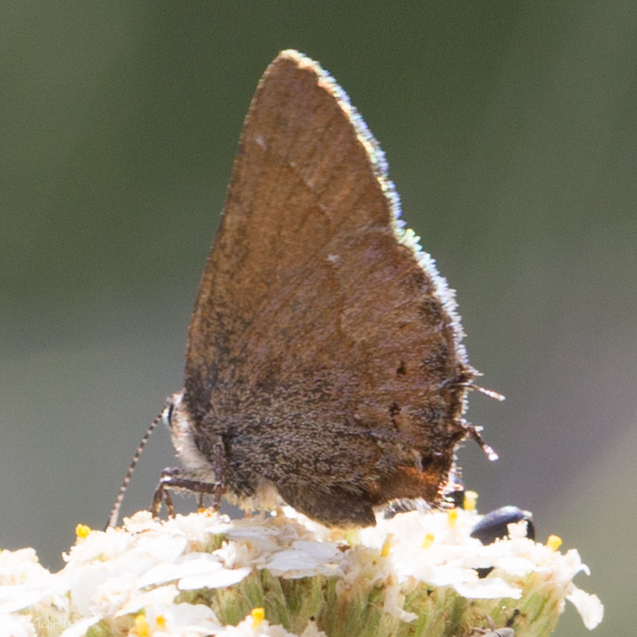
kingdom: Animalia
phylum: Arthropoda
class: Insecta
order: Lepidoptera
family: Lycaenidae
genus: Mitoura
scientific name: Mitoura nelsoni
